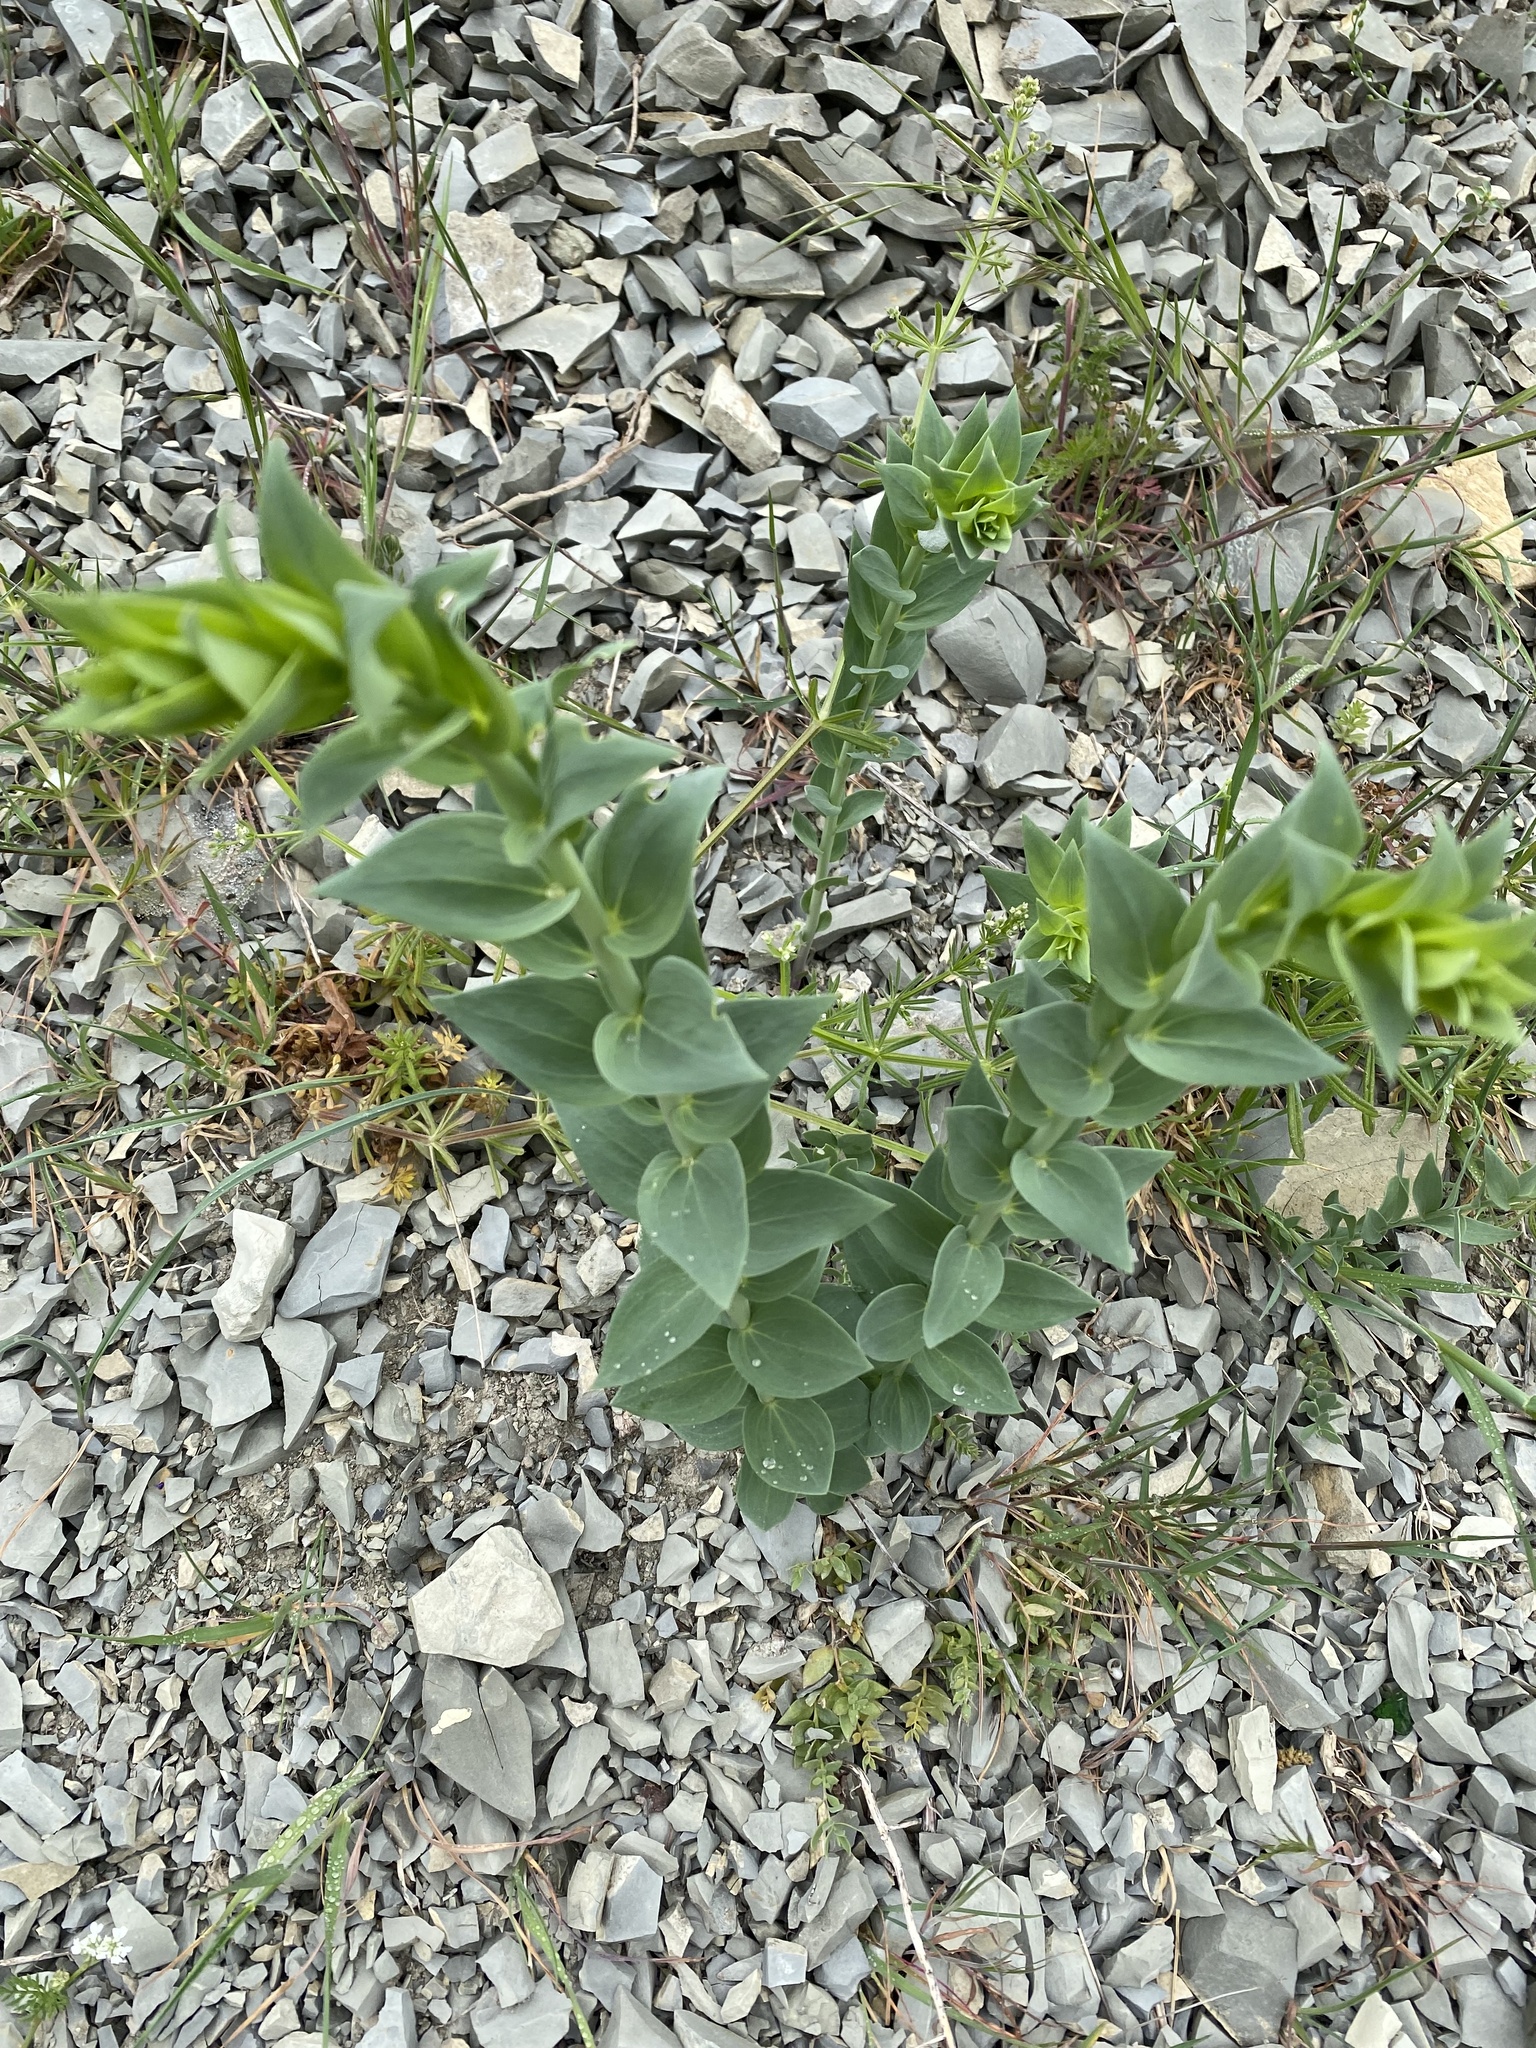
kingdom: Plantae
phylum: Tracheophyta
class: Magnoliopsida
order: Lamiales
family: Plantaginaceae
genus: Linaria
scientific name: Linaria genistifolia
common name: Broomleaf toadflax
